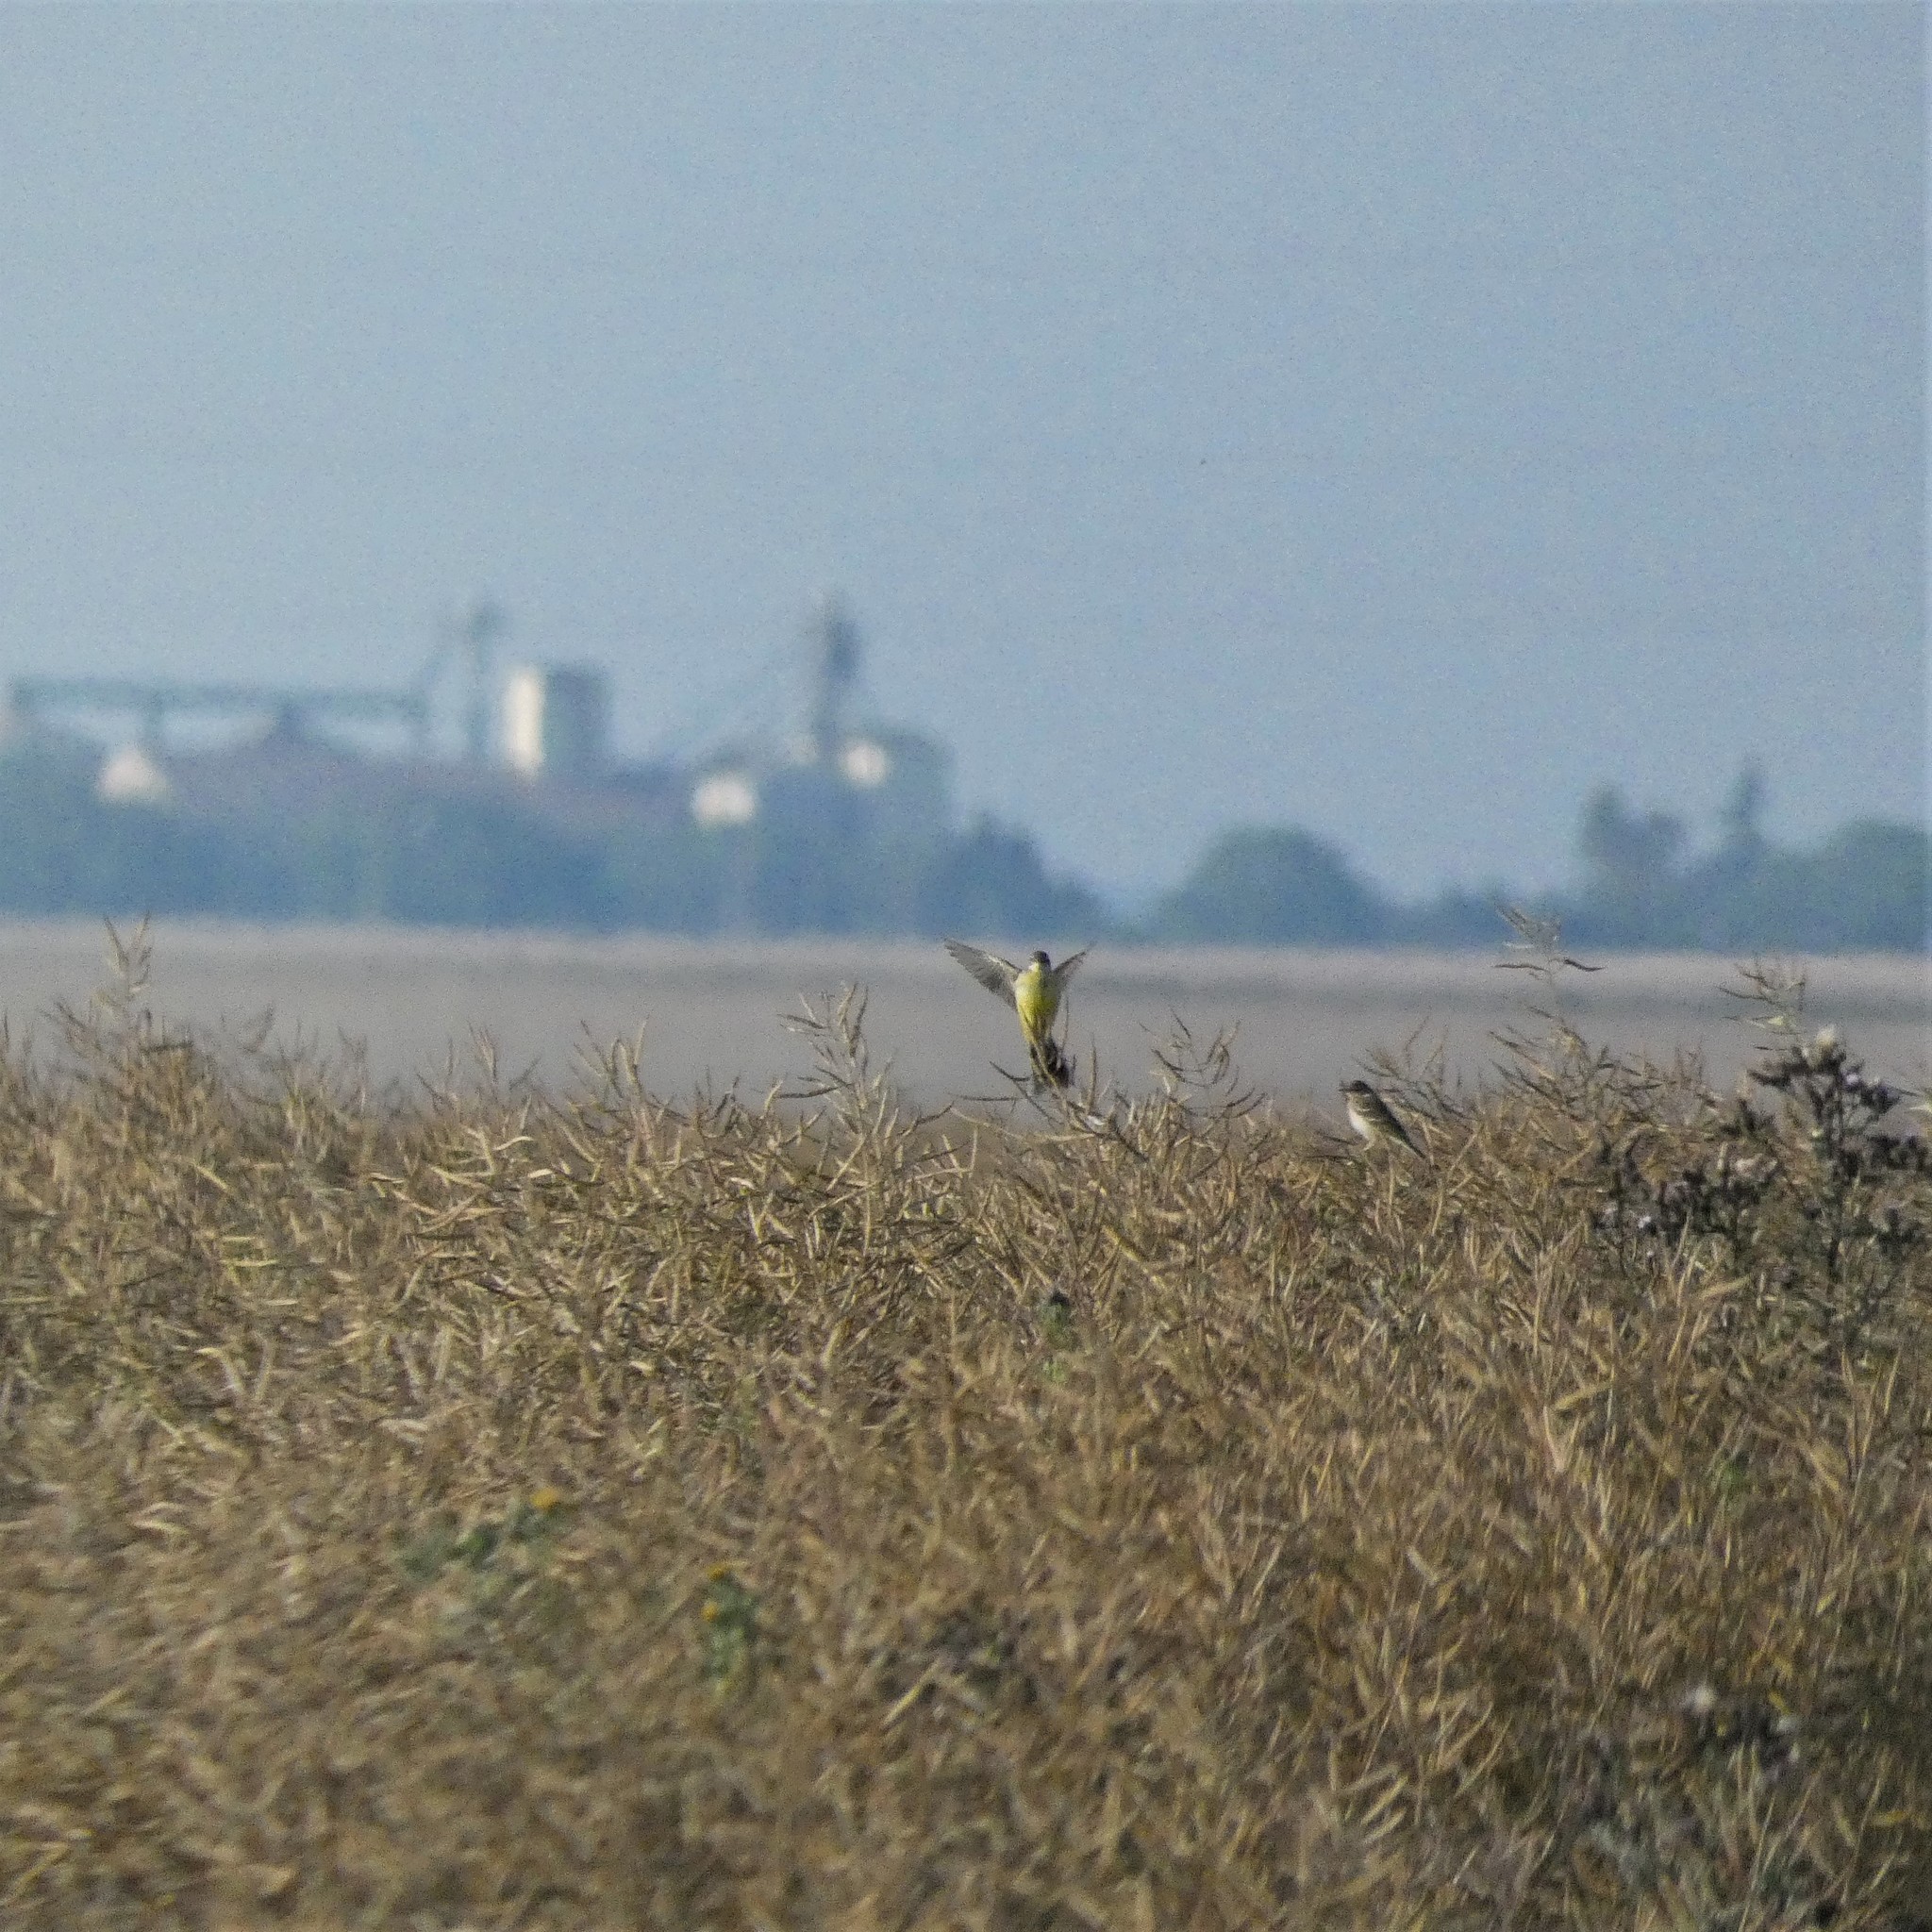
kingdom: Animalia
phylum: Chordata
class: Aves
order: Passeriformes
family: Motacillidae
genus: Motacilla
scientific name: Motacilla flava
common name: Western yellow wagtail
